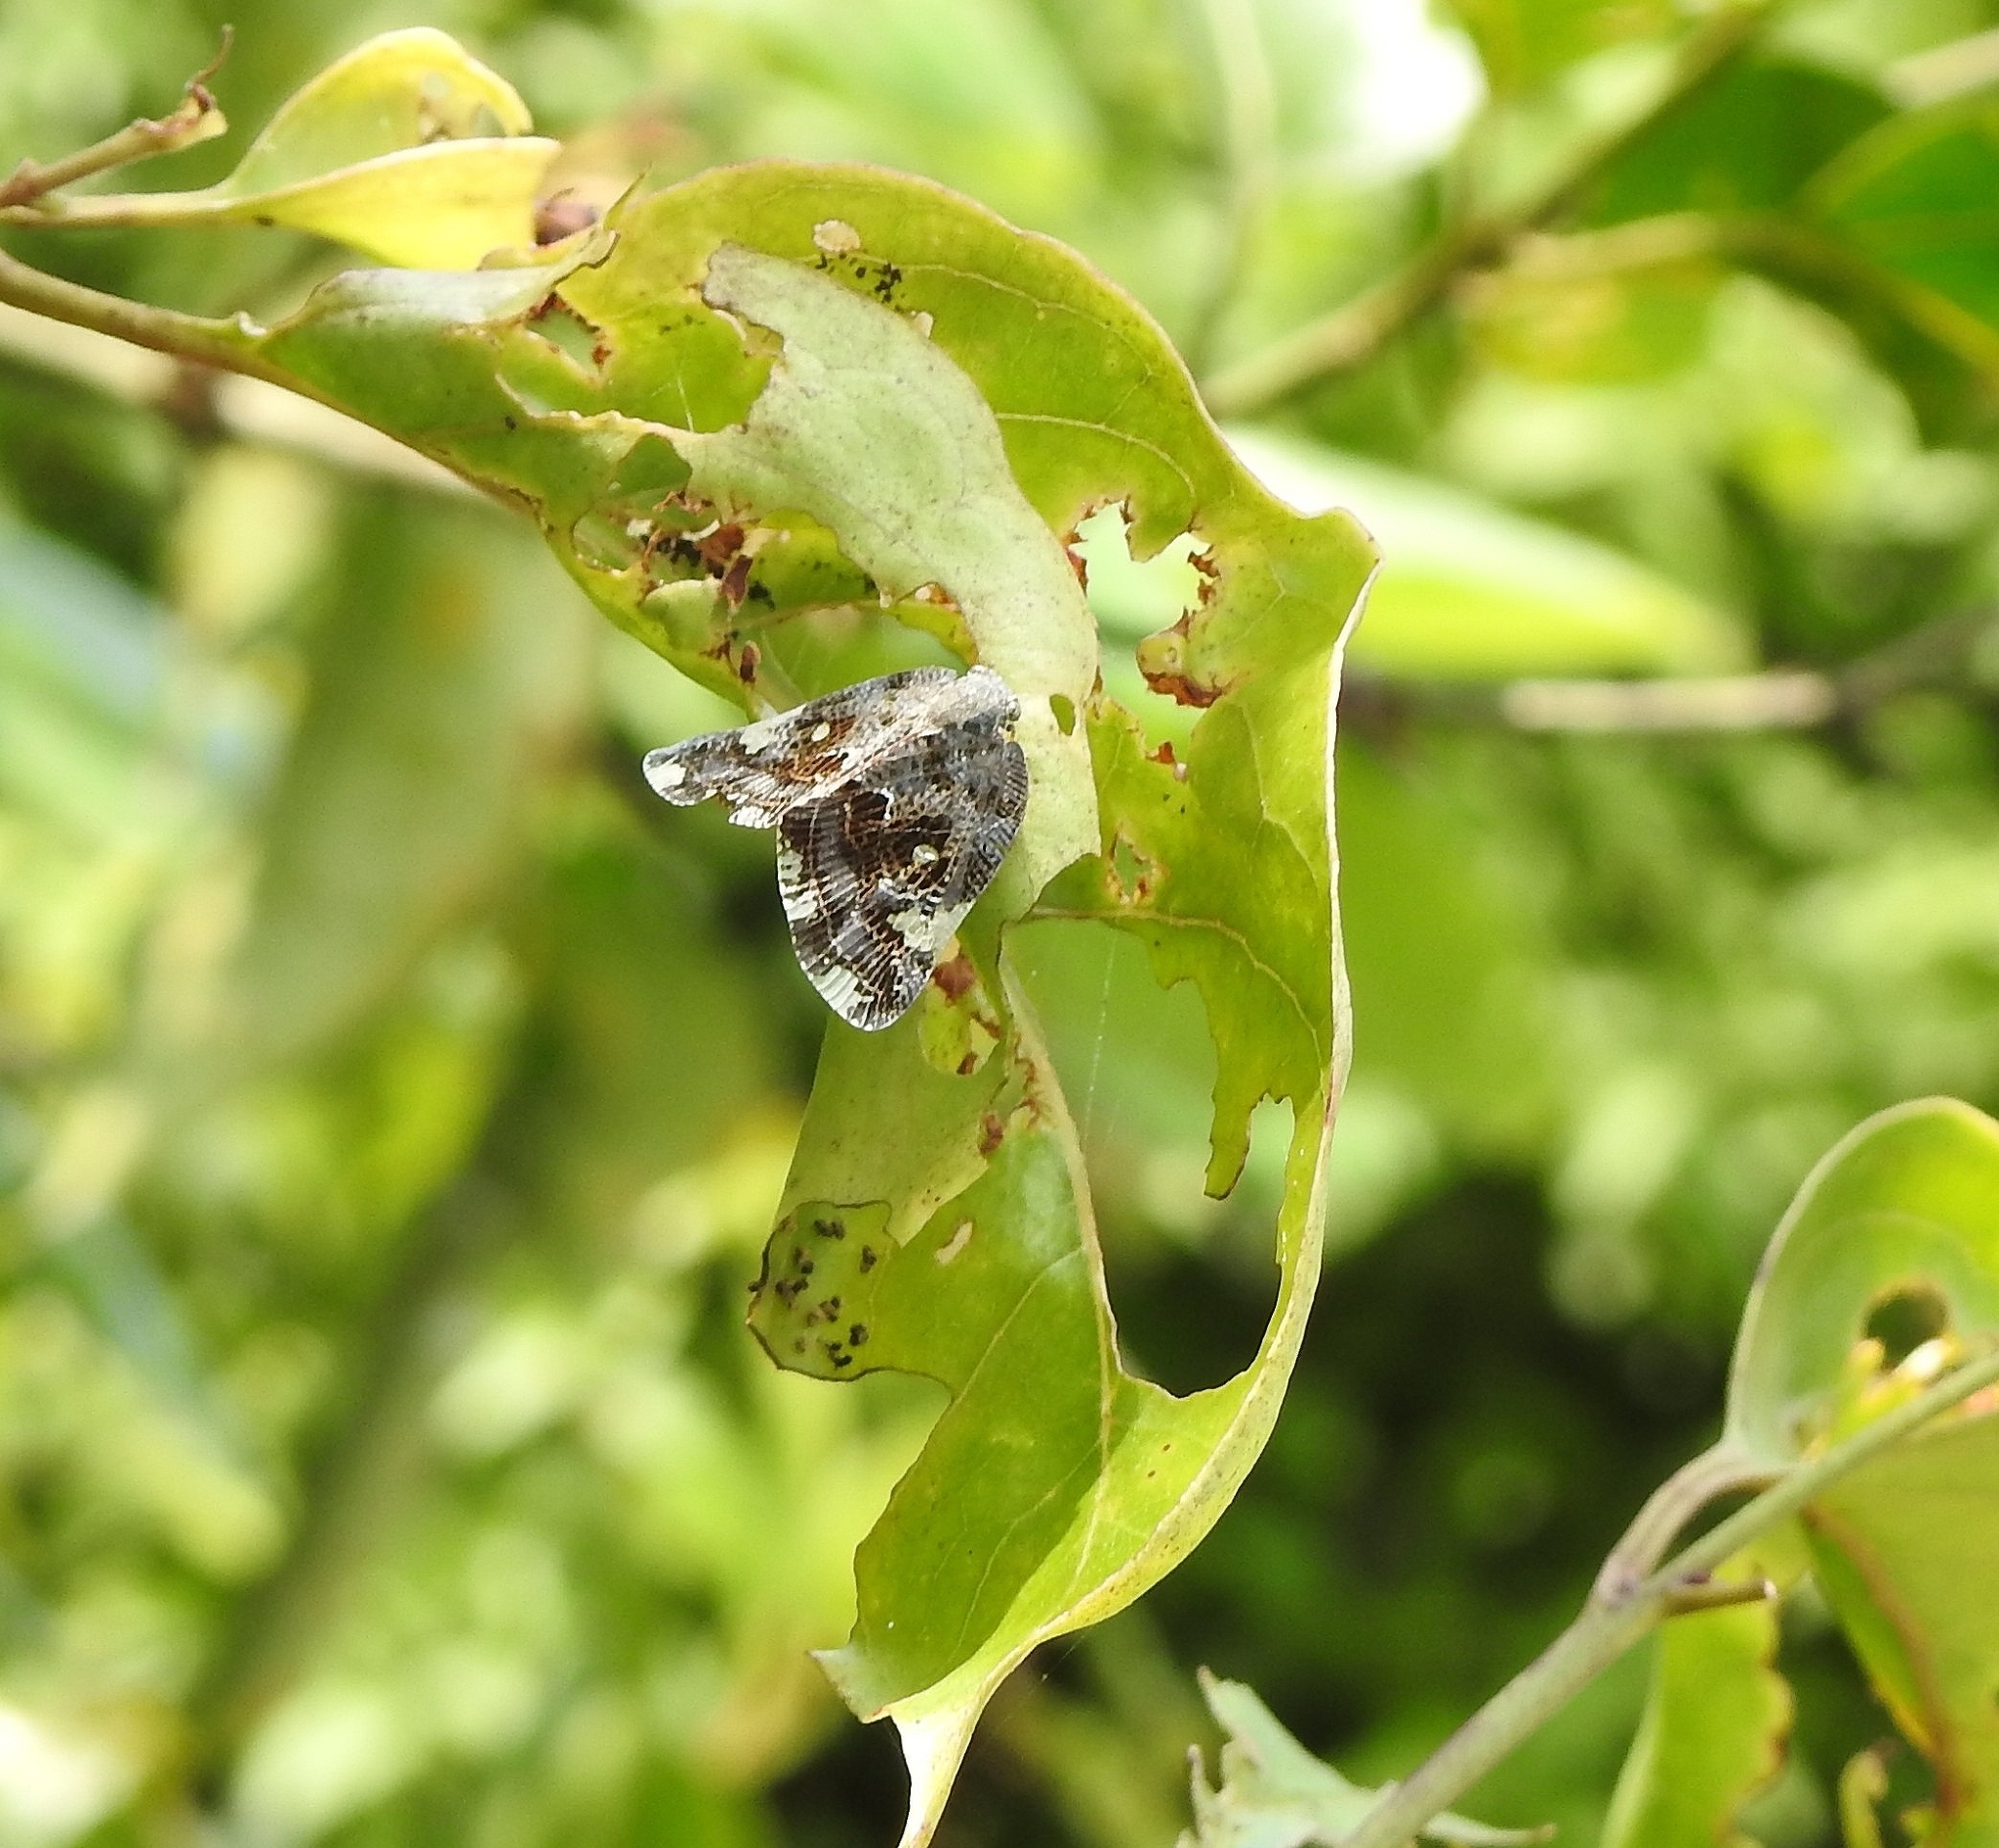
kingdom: Animalia
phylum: Arthropoda
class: Insecta
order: Hemiptera
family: Ricaniidae
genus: Ricania
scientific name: Ricania speculum
